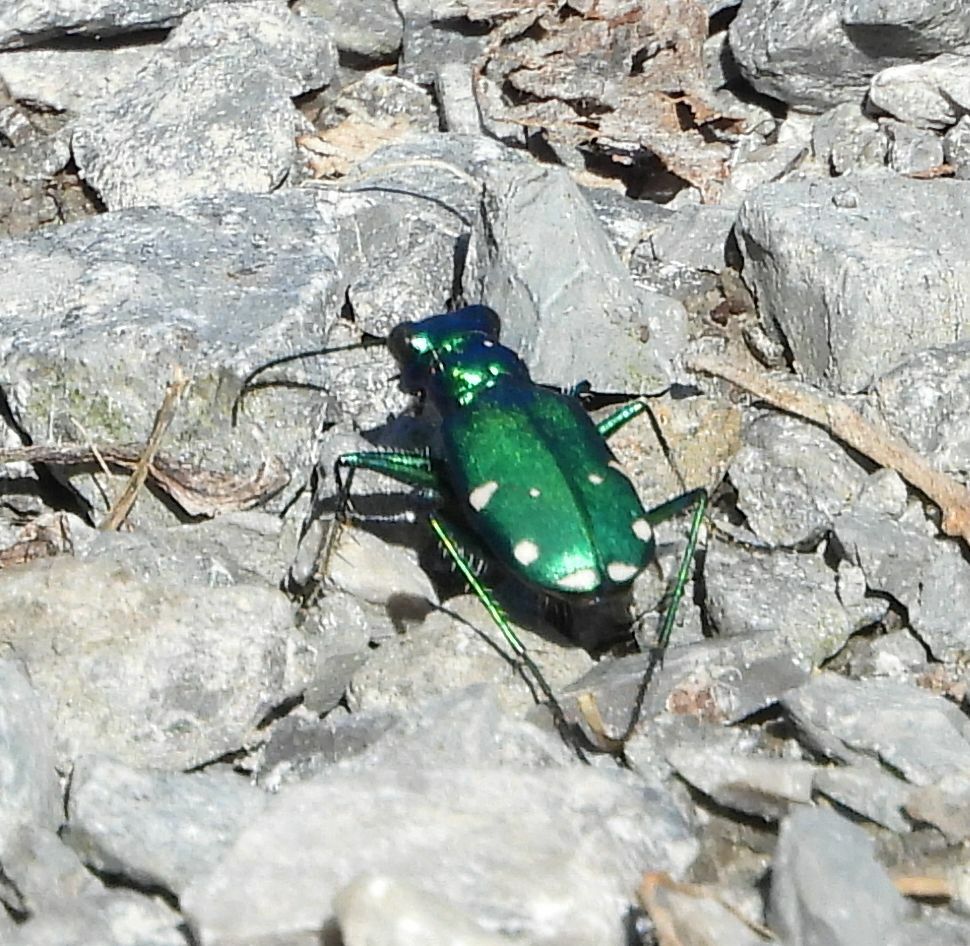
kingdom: Animalia
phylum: Arthropoda
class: Insecta
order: Coleoptera
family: Carabidae
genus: Cicindela
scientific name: Cicindela sexguttata
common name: Six-spotted tiger beetle
